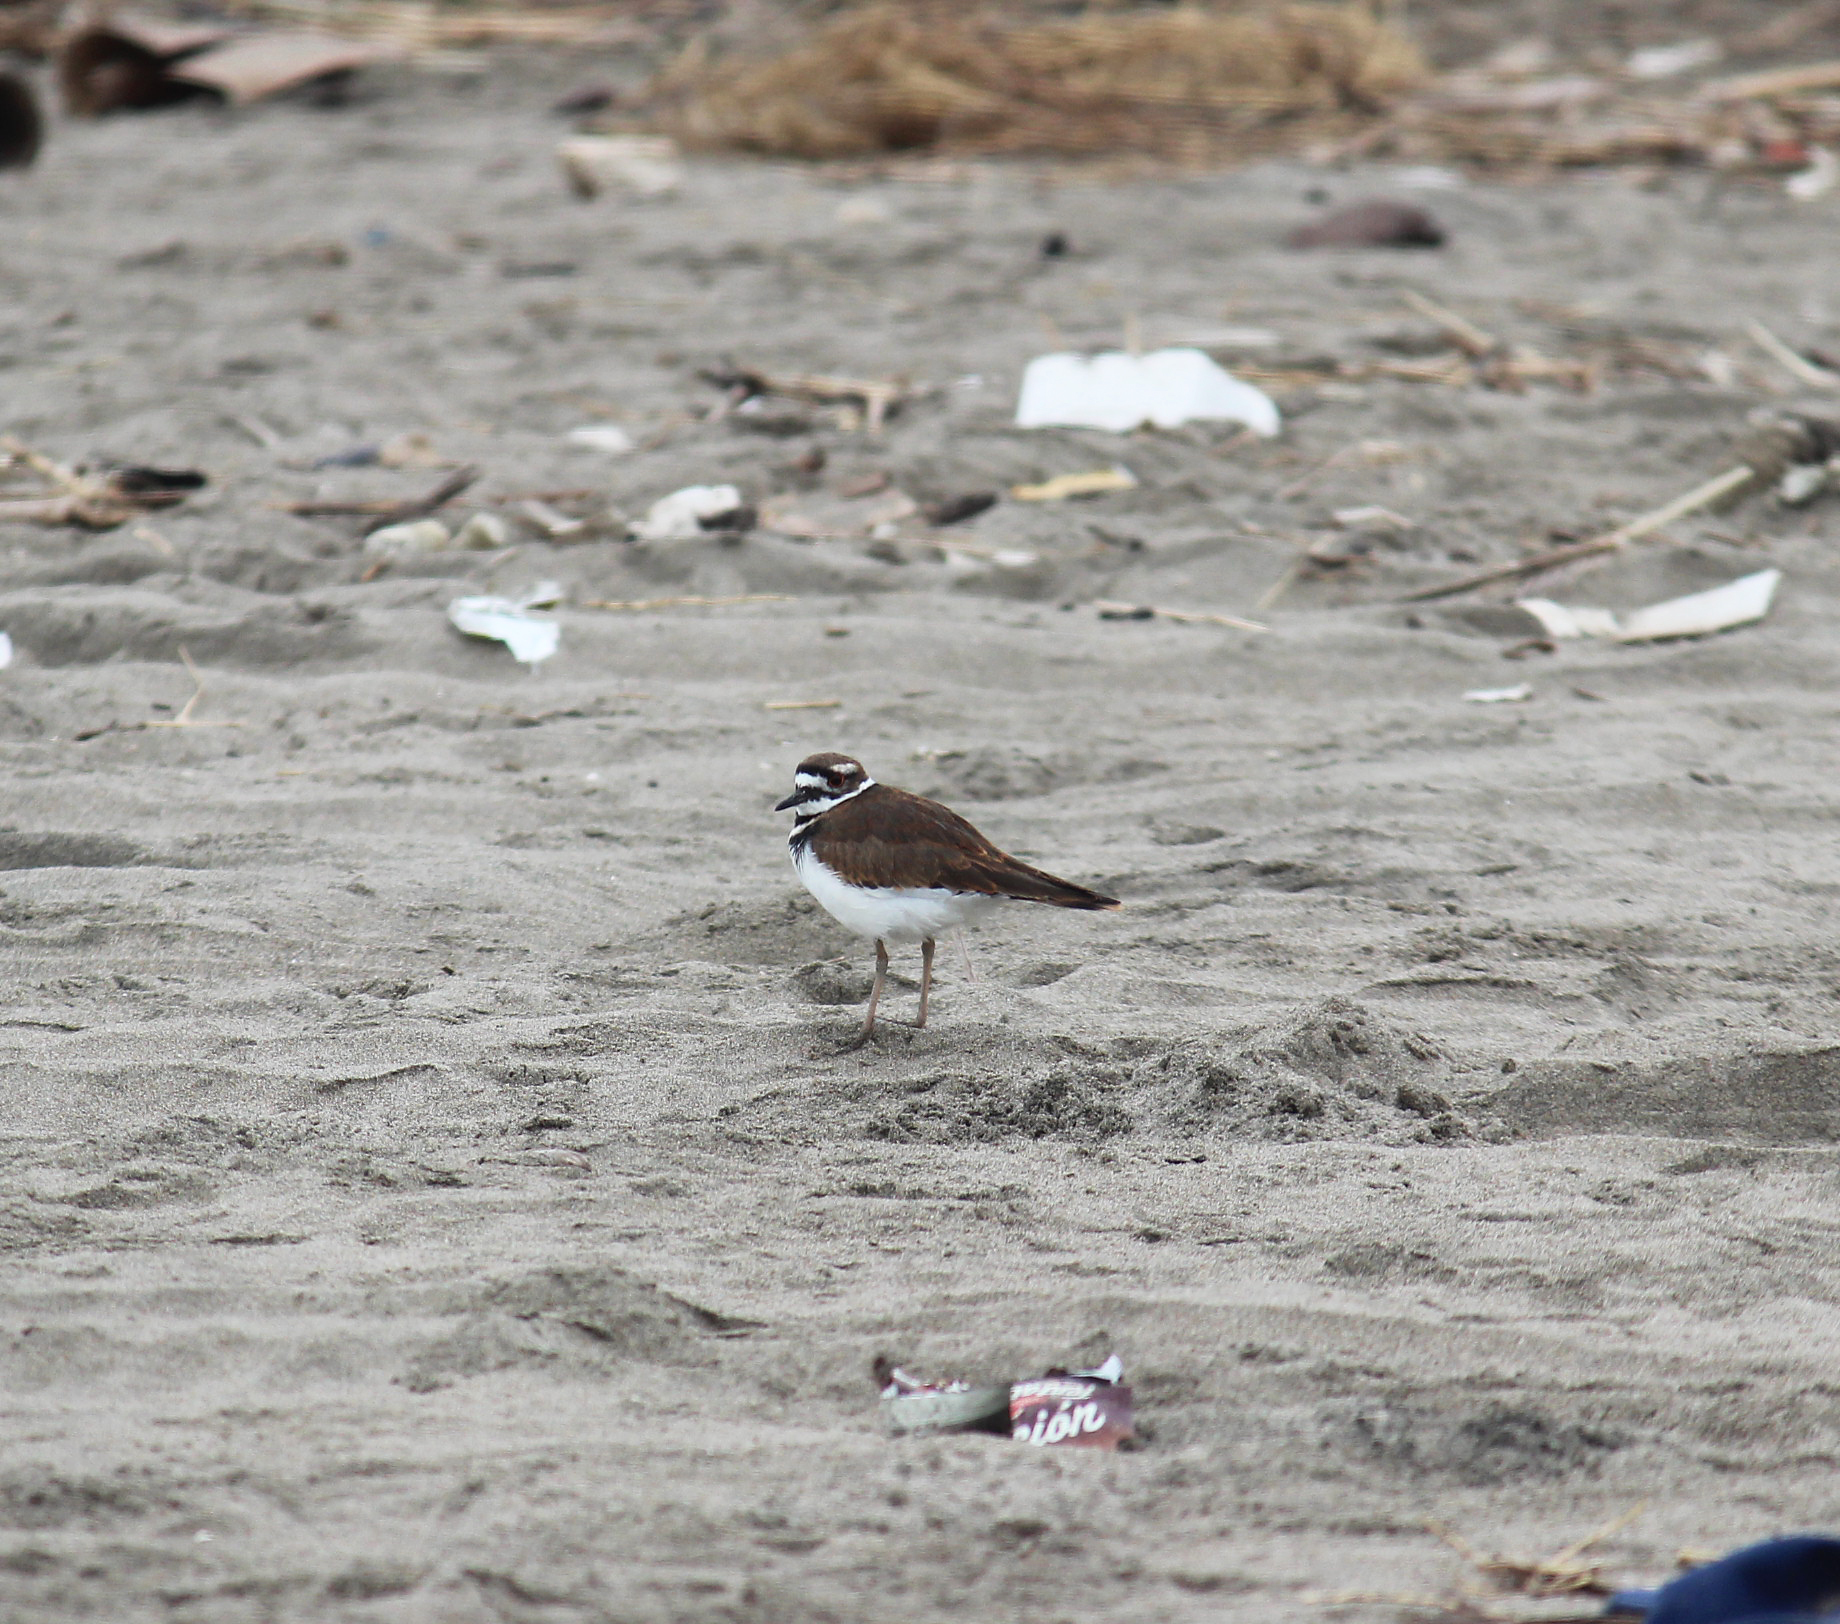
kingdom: Animalia
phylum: Chordata
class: Aves
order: Charadriiformes
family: Charadriidae
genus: Charadrius
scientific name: Charadrius vociferus
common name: Killdeer
